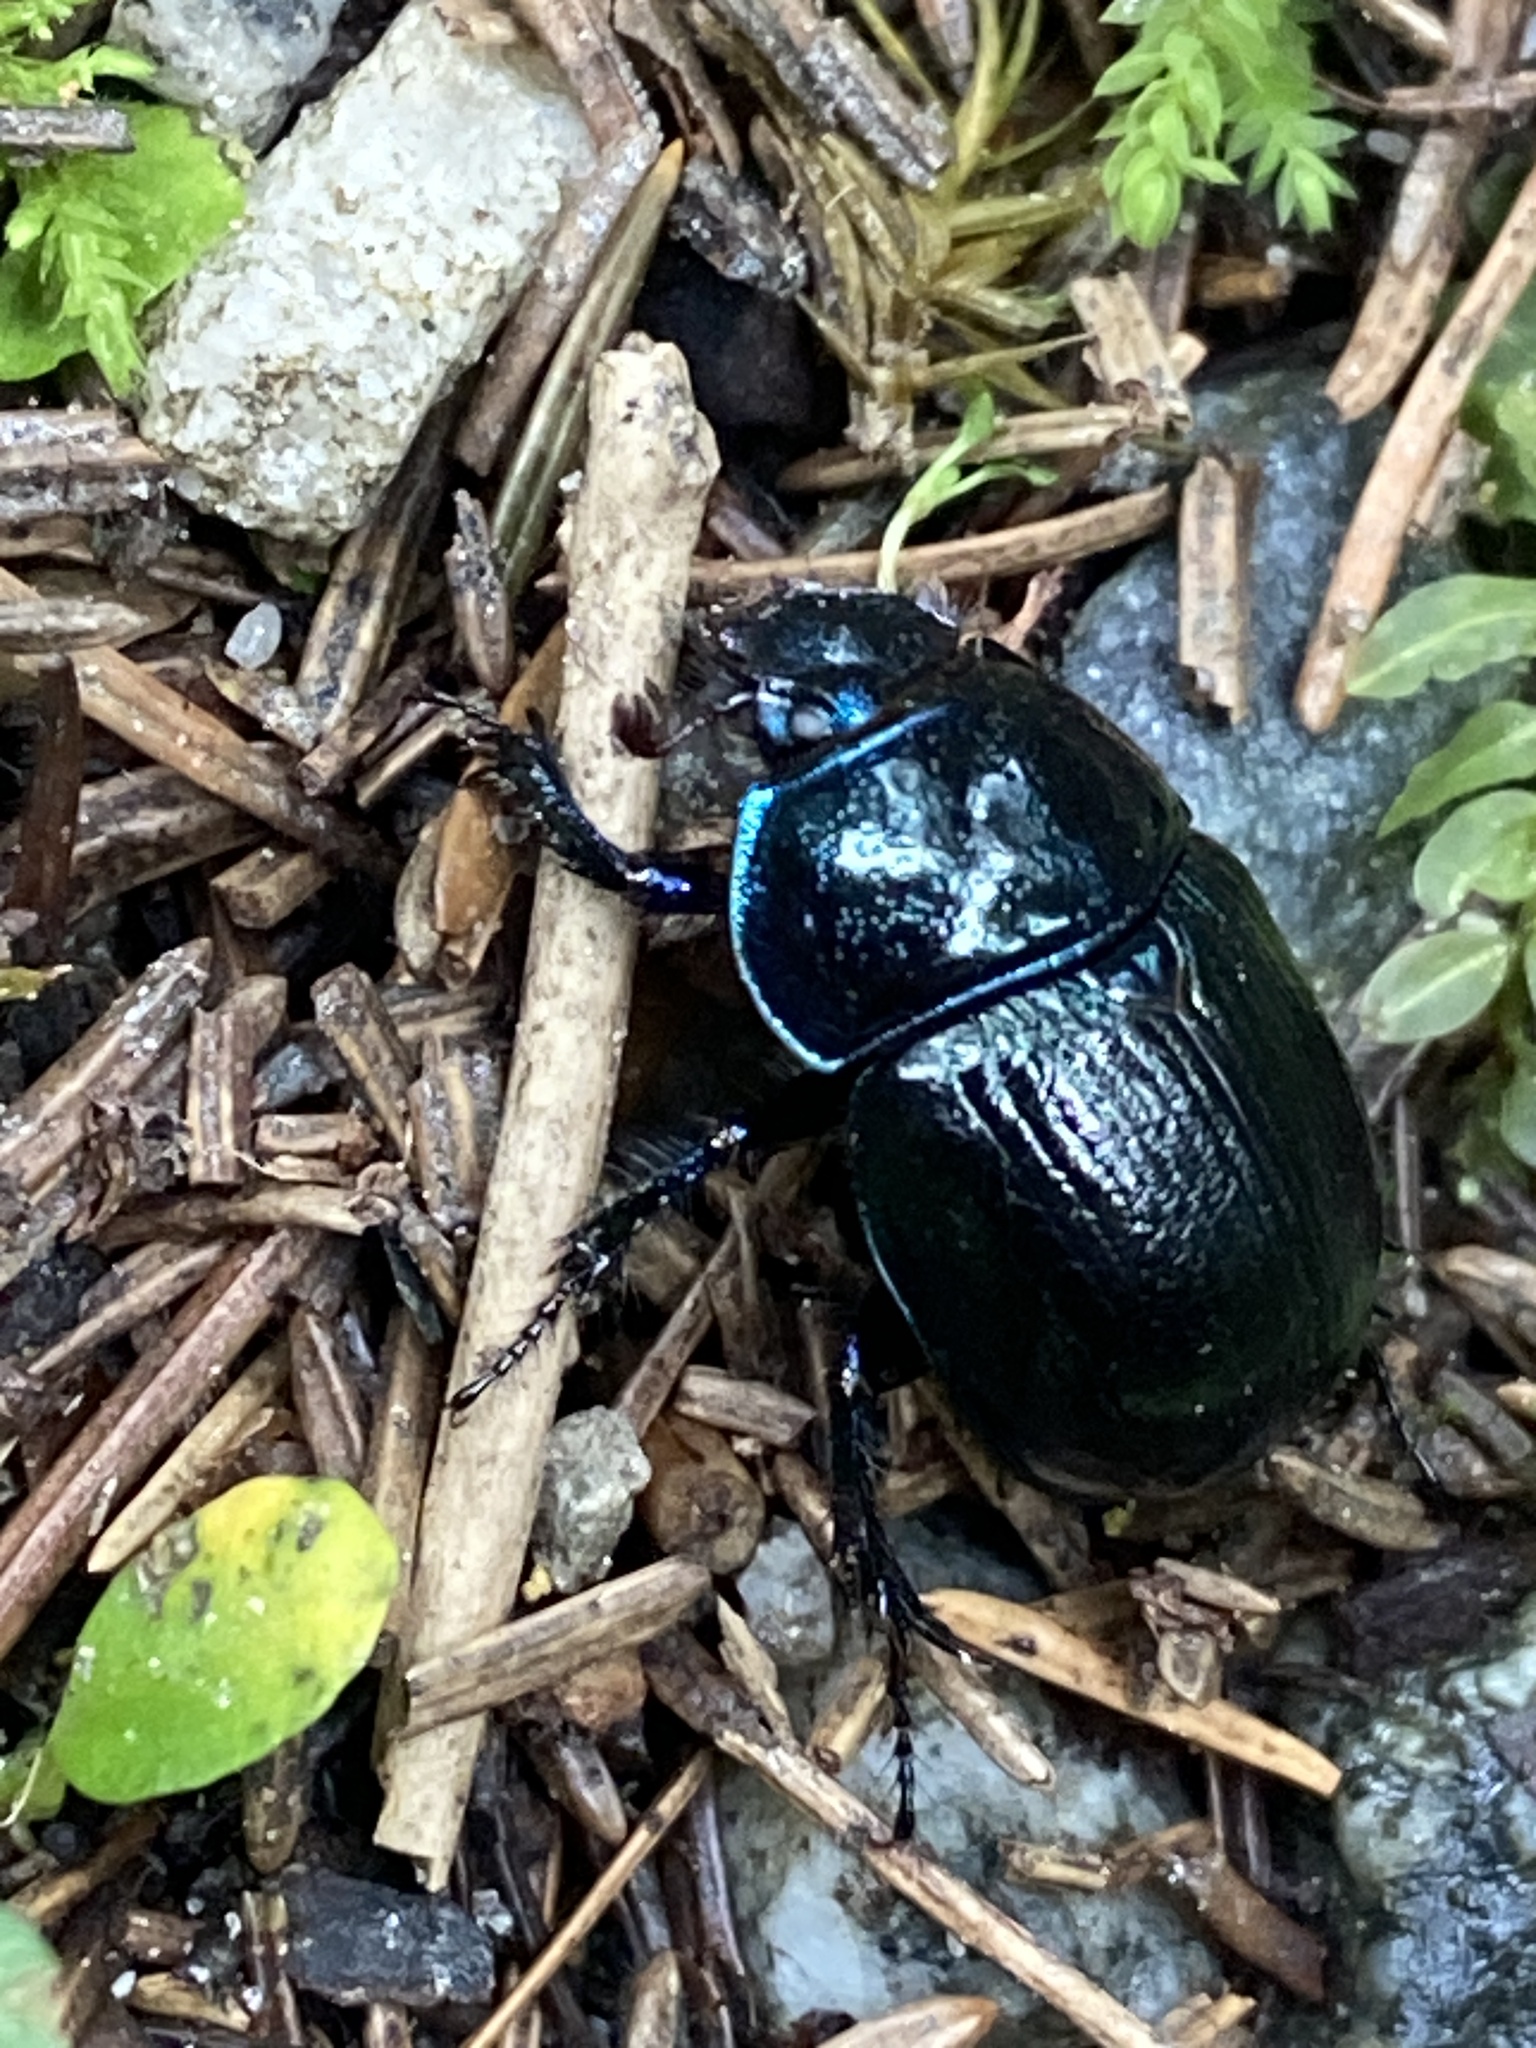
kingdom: Animalia
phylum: Arthropoda
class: Insecta
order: Coleoptera
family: Geotrupidae
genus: Anoplotrupes
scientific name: Anoplotrupes stercorosus
